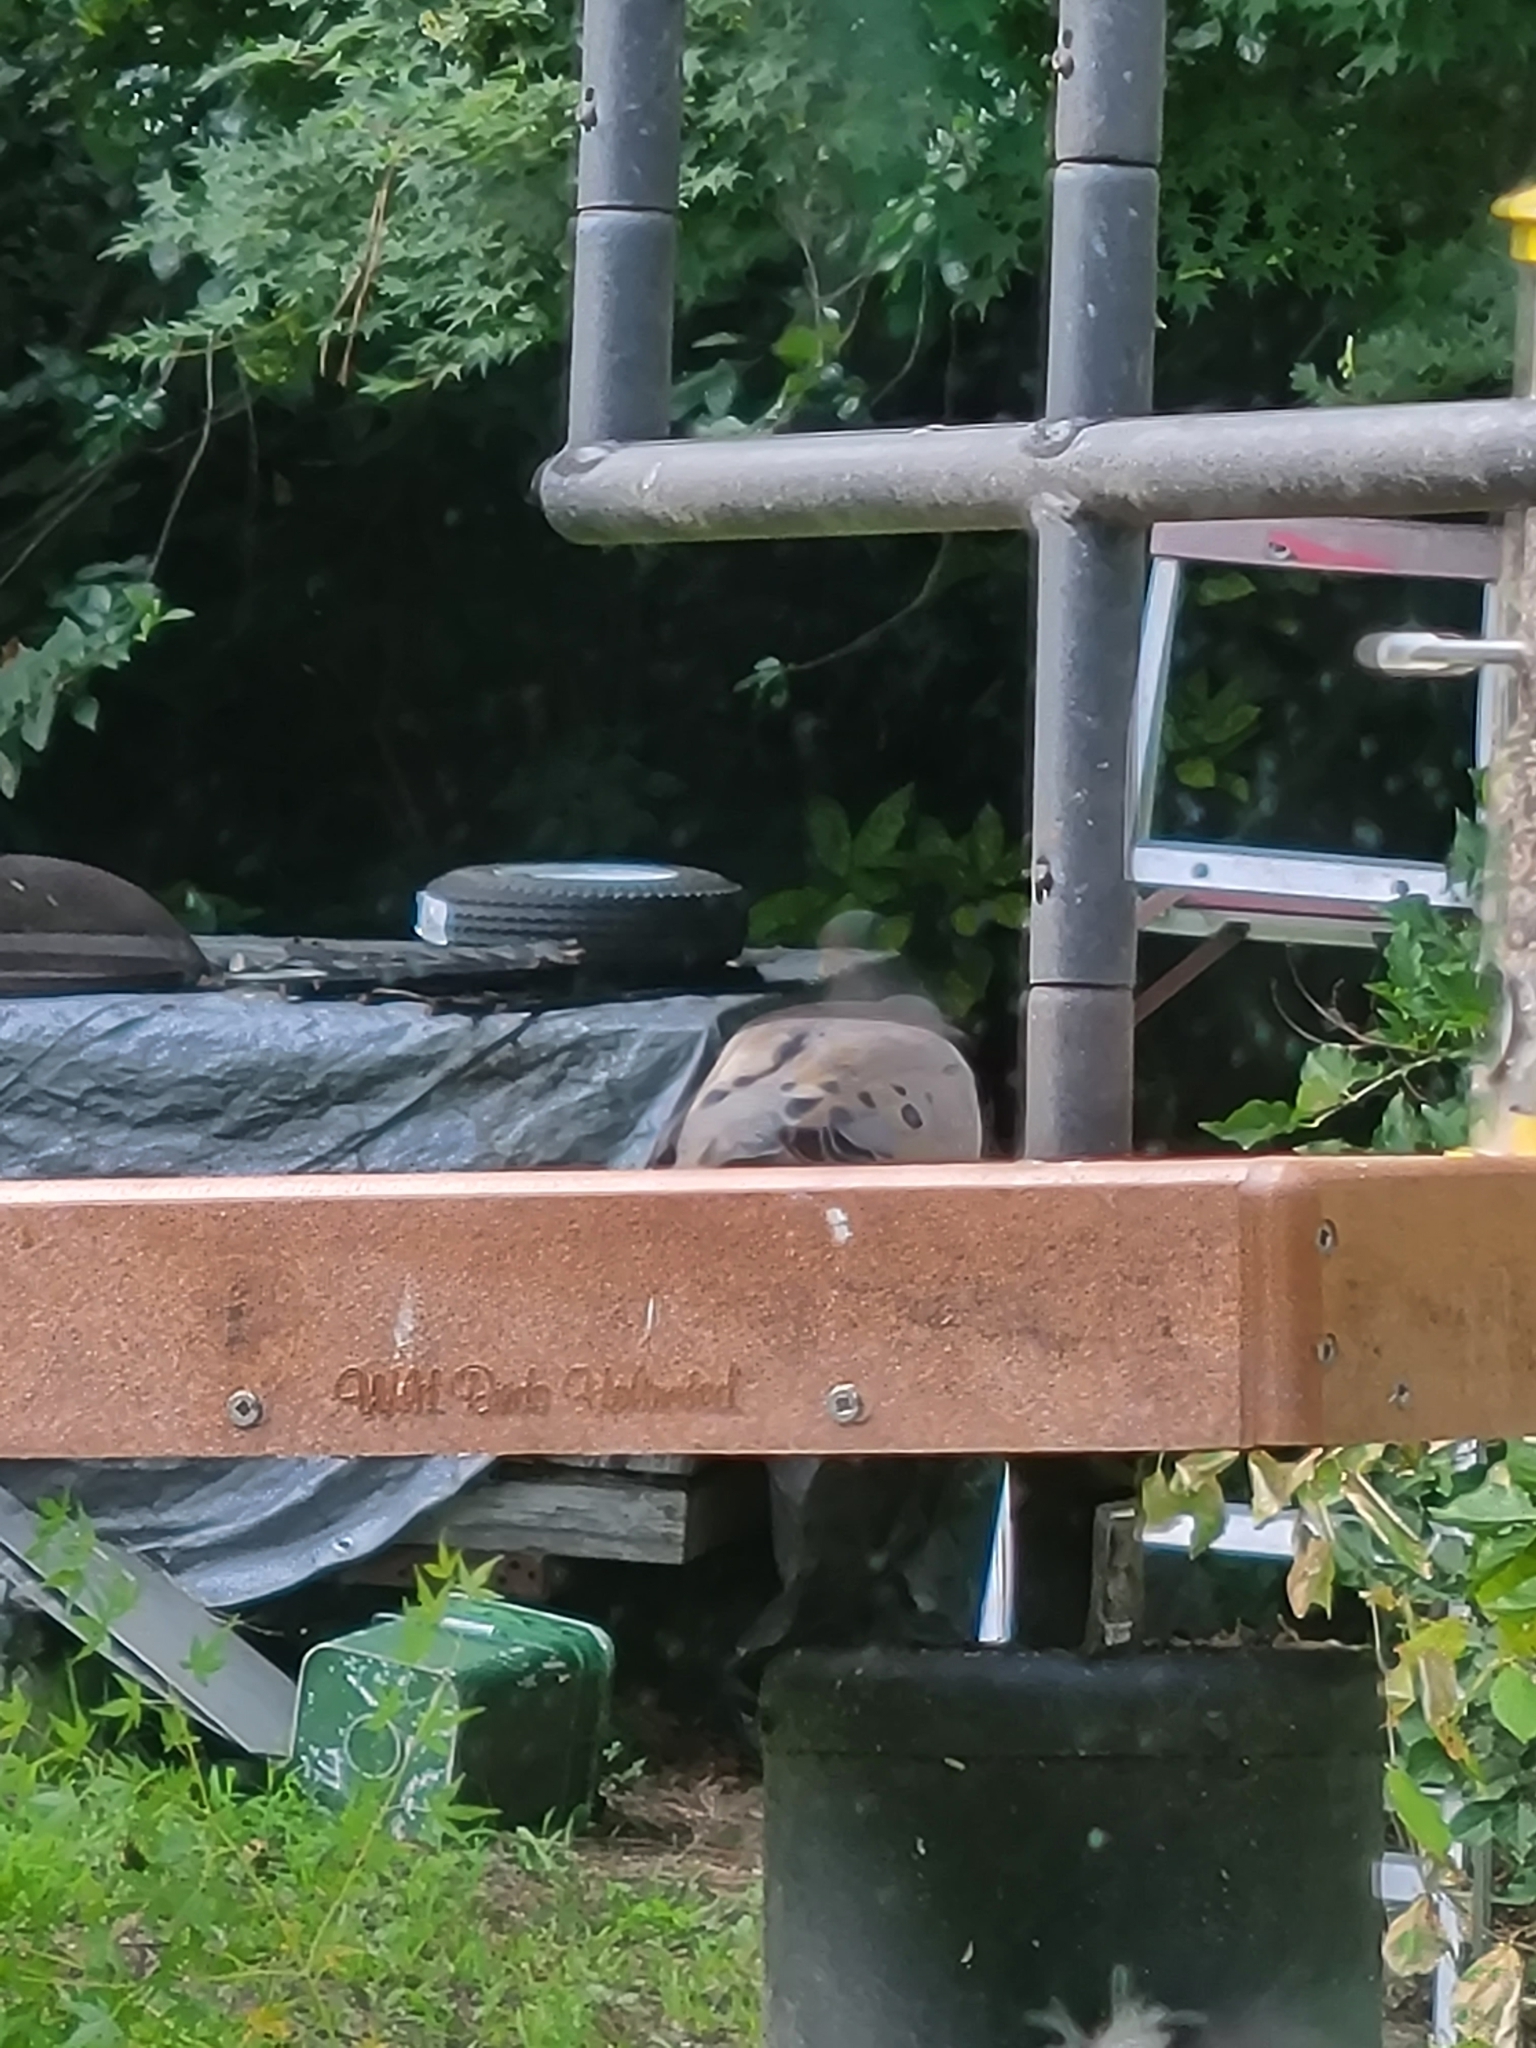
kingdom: Animalia
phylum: Chordata
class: Aves
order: Columbiformes
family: Columbidae
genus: Zenaida
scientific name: Zenaida macroura
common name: Mourning dove
